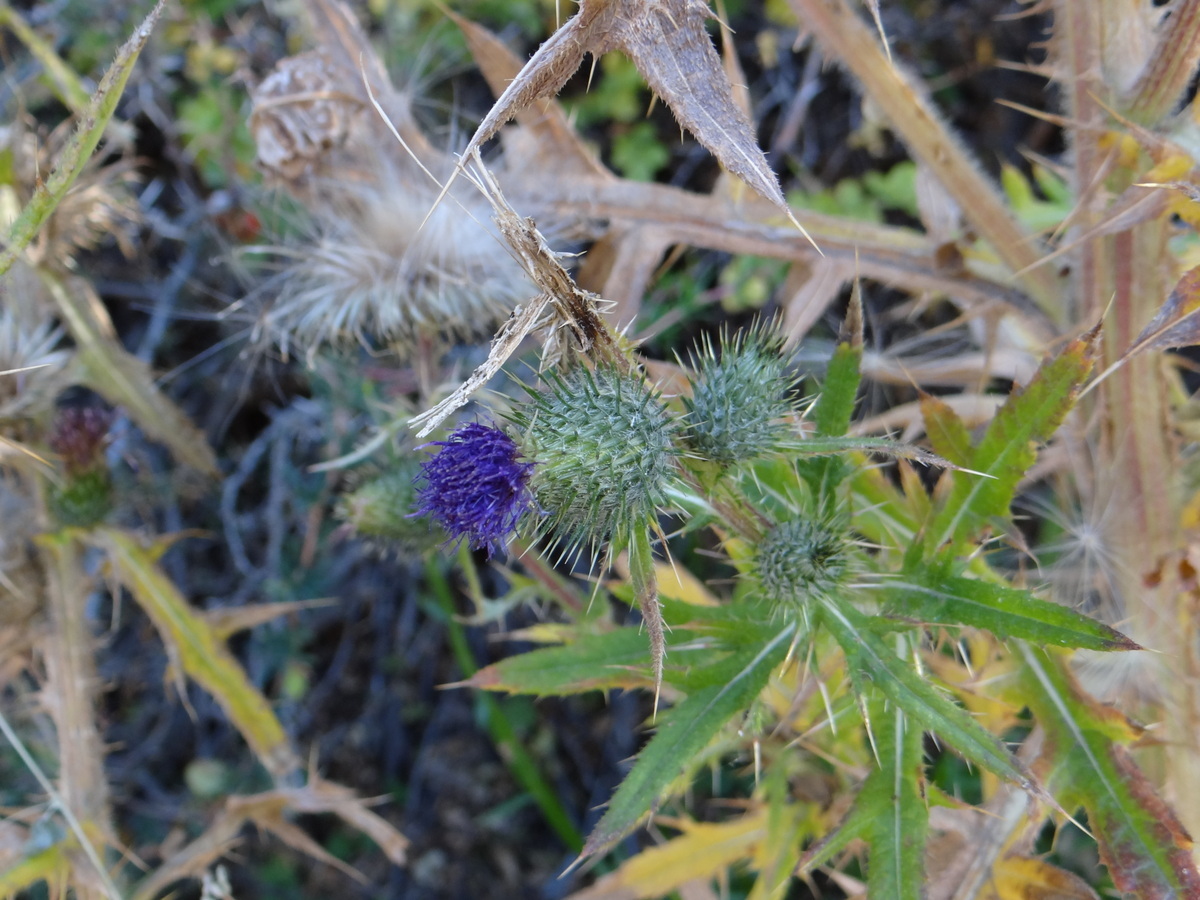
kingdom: Plantae
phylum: Tracheophyta
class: Magnoliopsida
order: Asterales
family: Asteraceae
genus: Cirsium
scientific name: Cirsium vulgare
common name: Bull thistle
